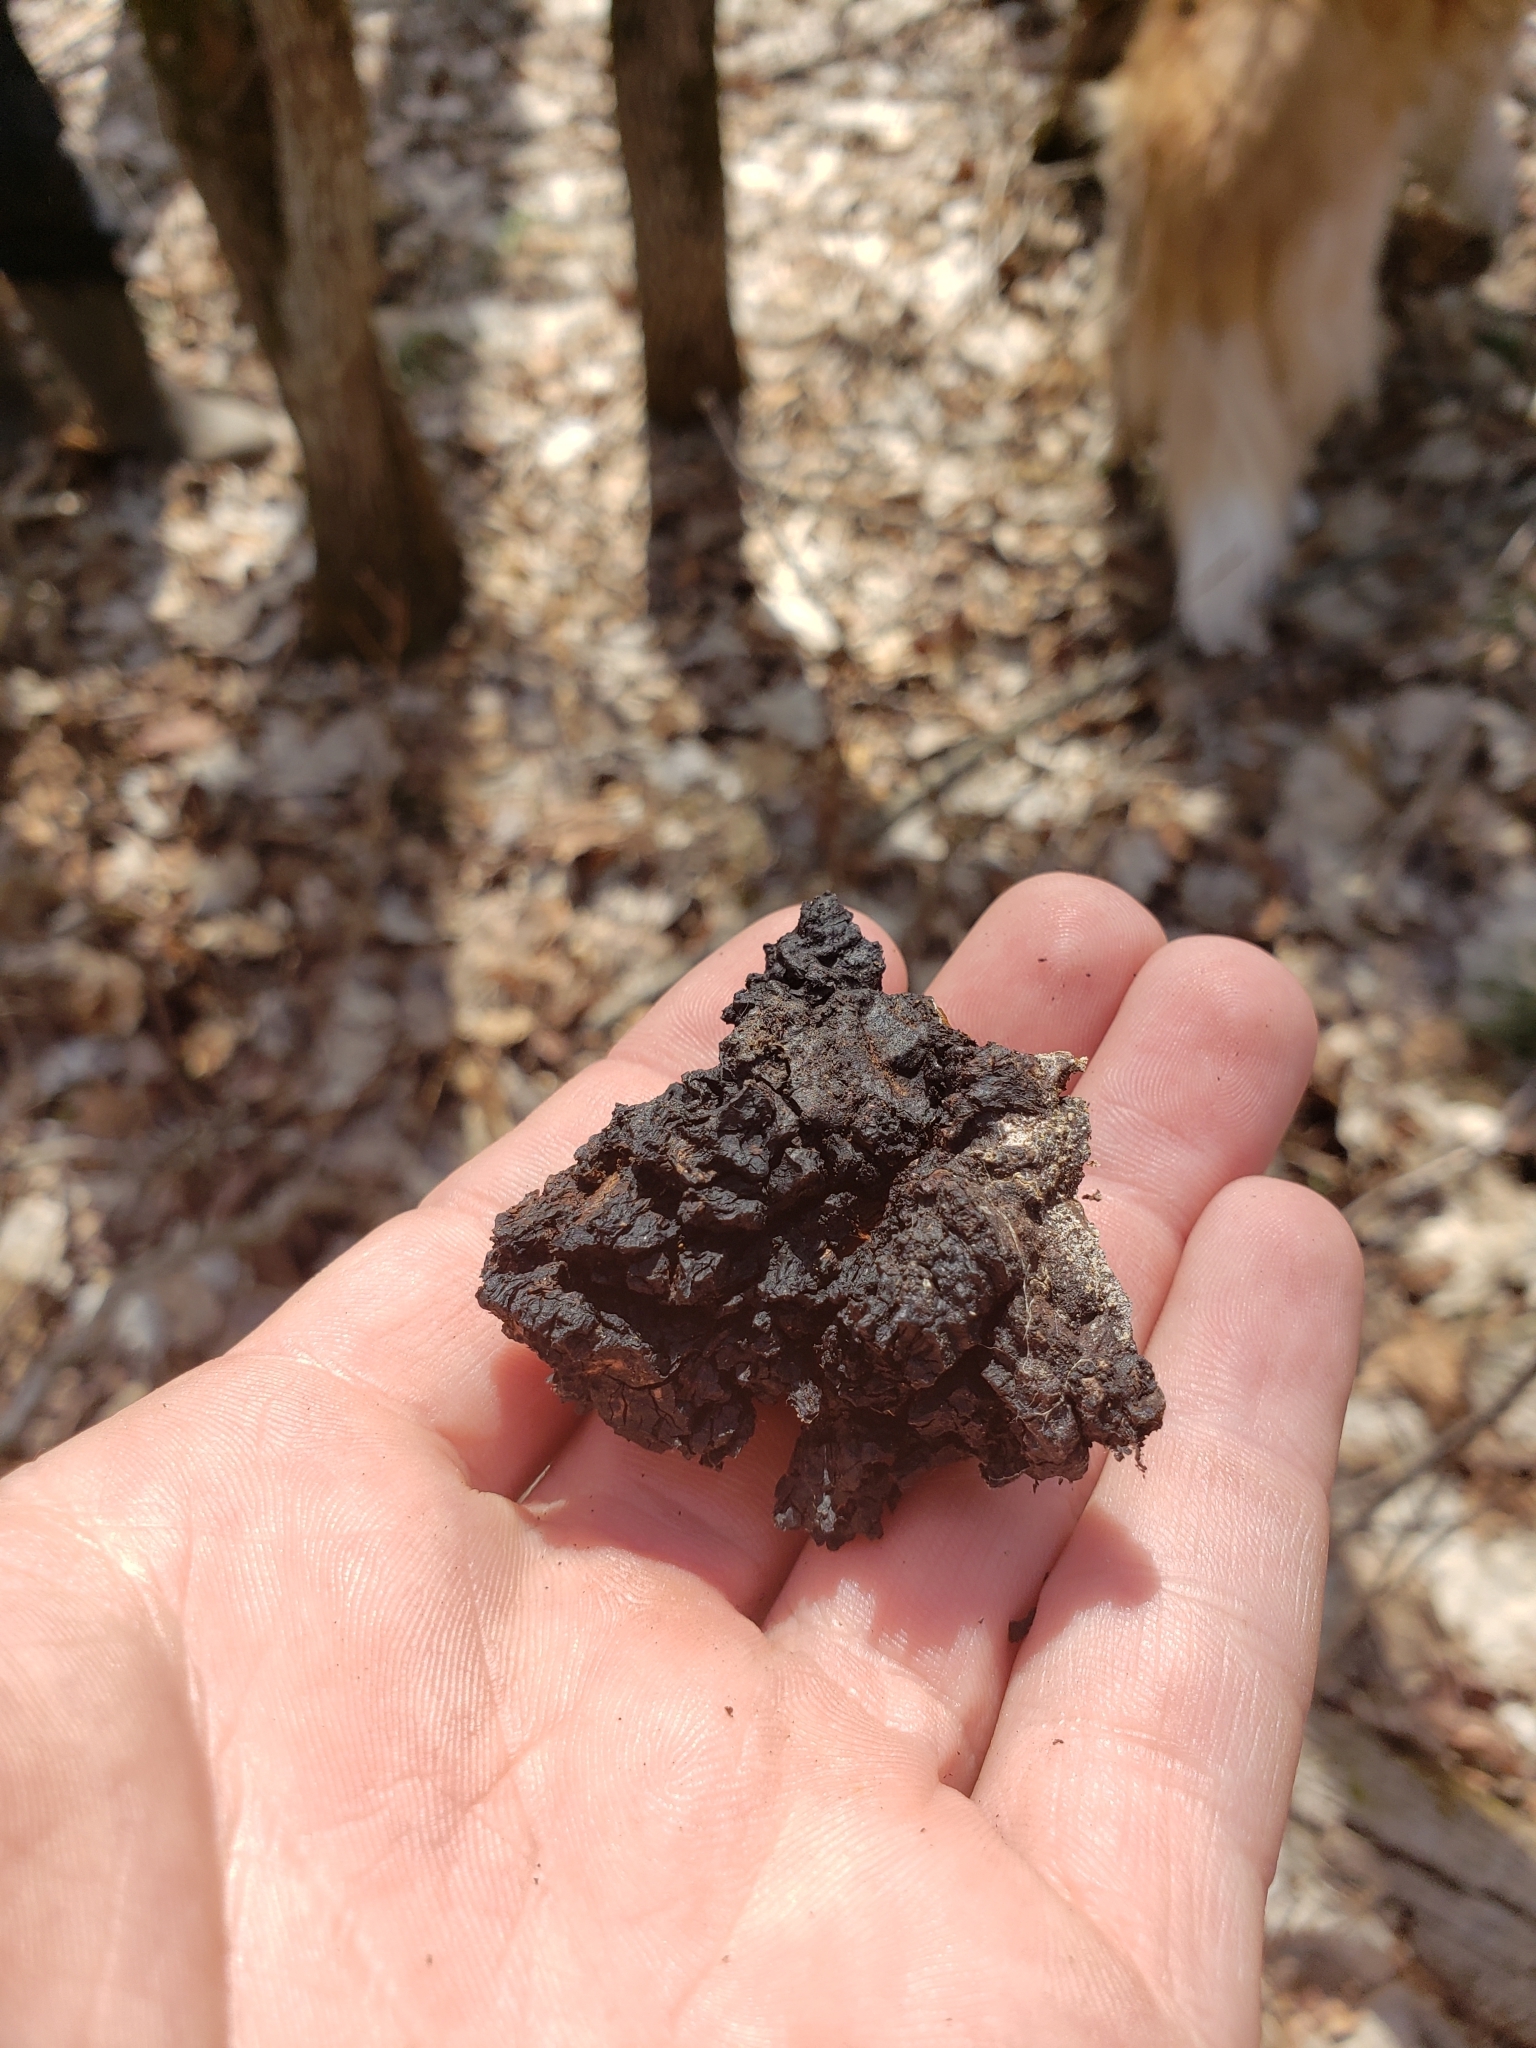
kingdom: Fungi
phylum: Basidiomycota
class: Agaricomycetes
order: Hymenochaetales
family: Hymenochaetaceae
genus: Inonotus
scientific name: Inonotus obliquus
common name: Chaga
